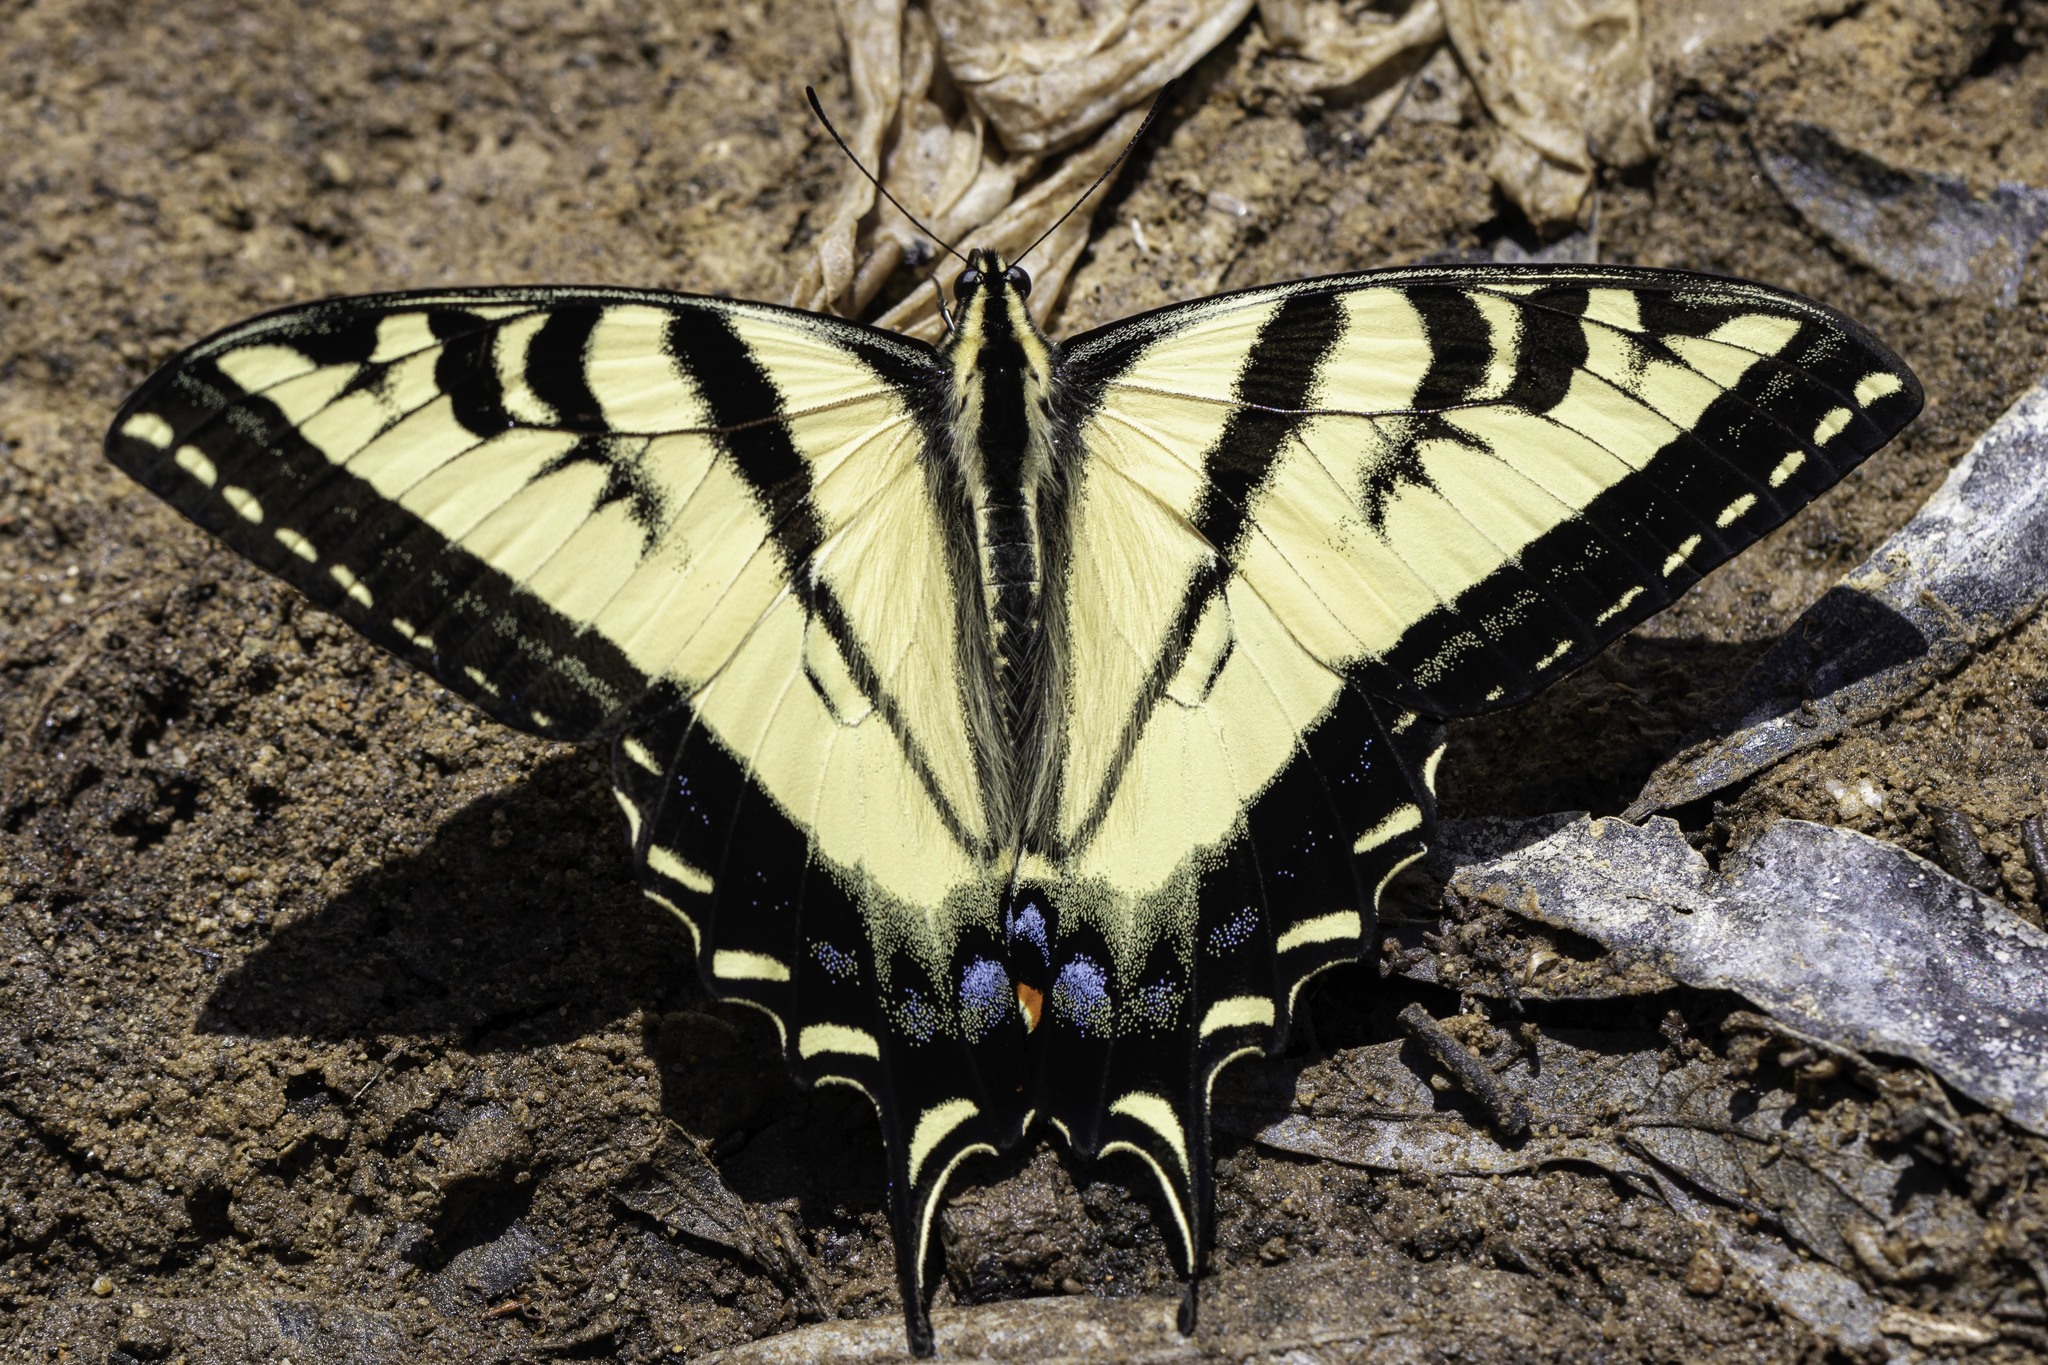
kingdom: Animalia
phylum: Arthropoda
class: Insecta
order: Lepidoptera
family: Papilionidae
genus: Papilio
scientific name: Papilio rutulus
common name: Western tiger swallowtail
